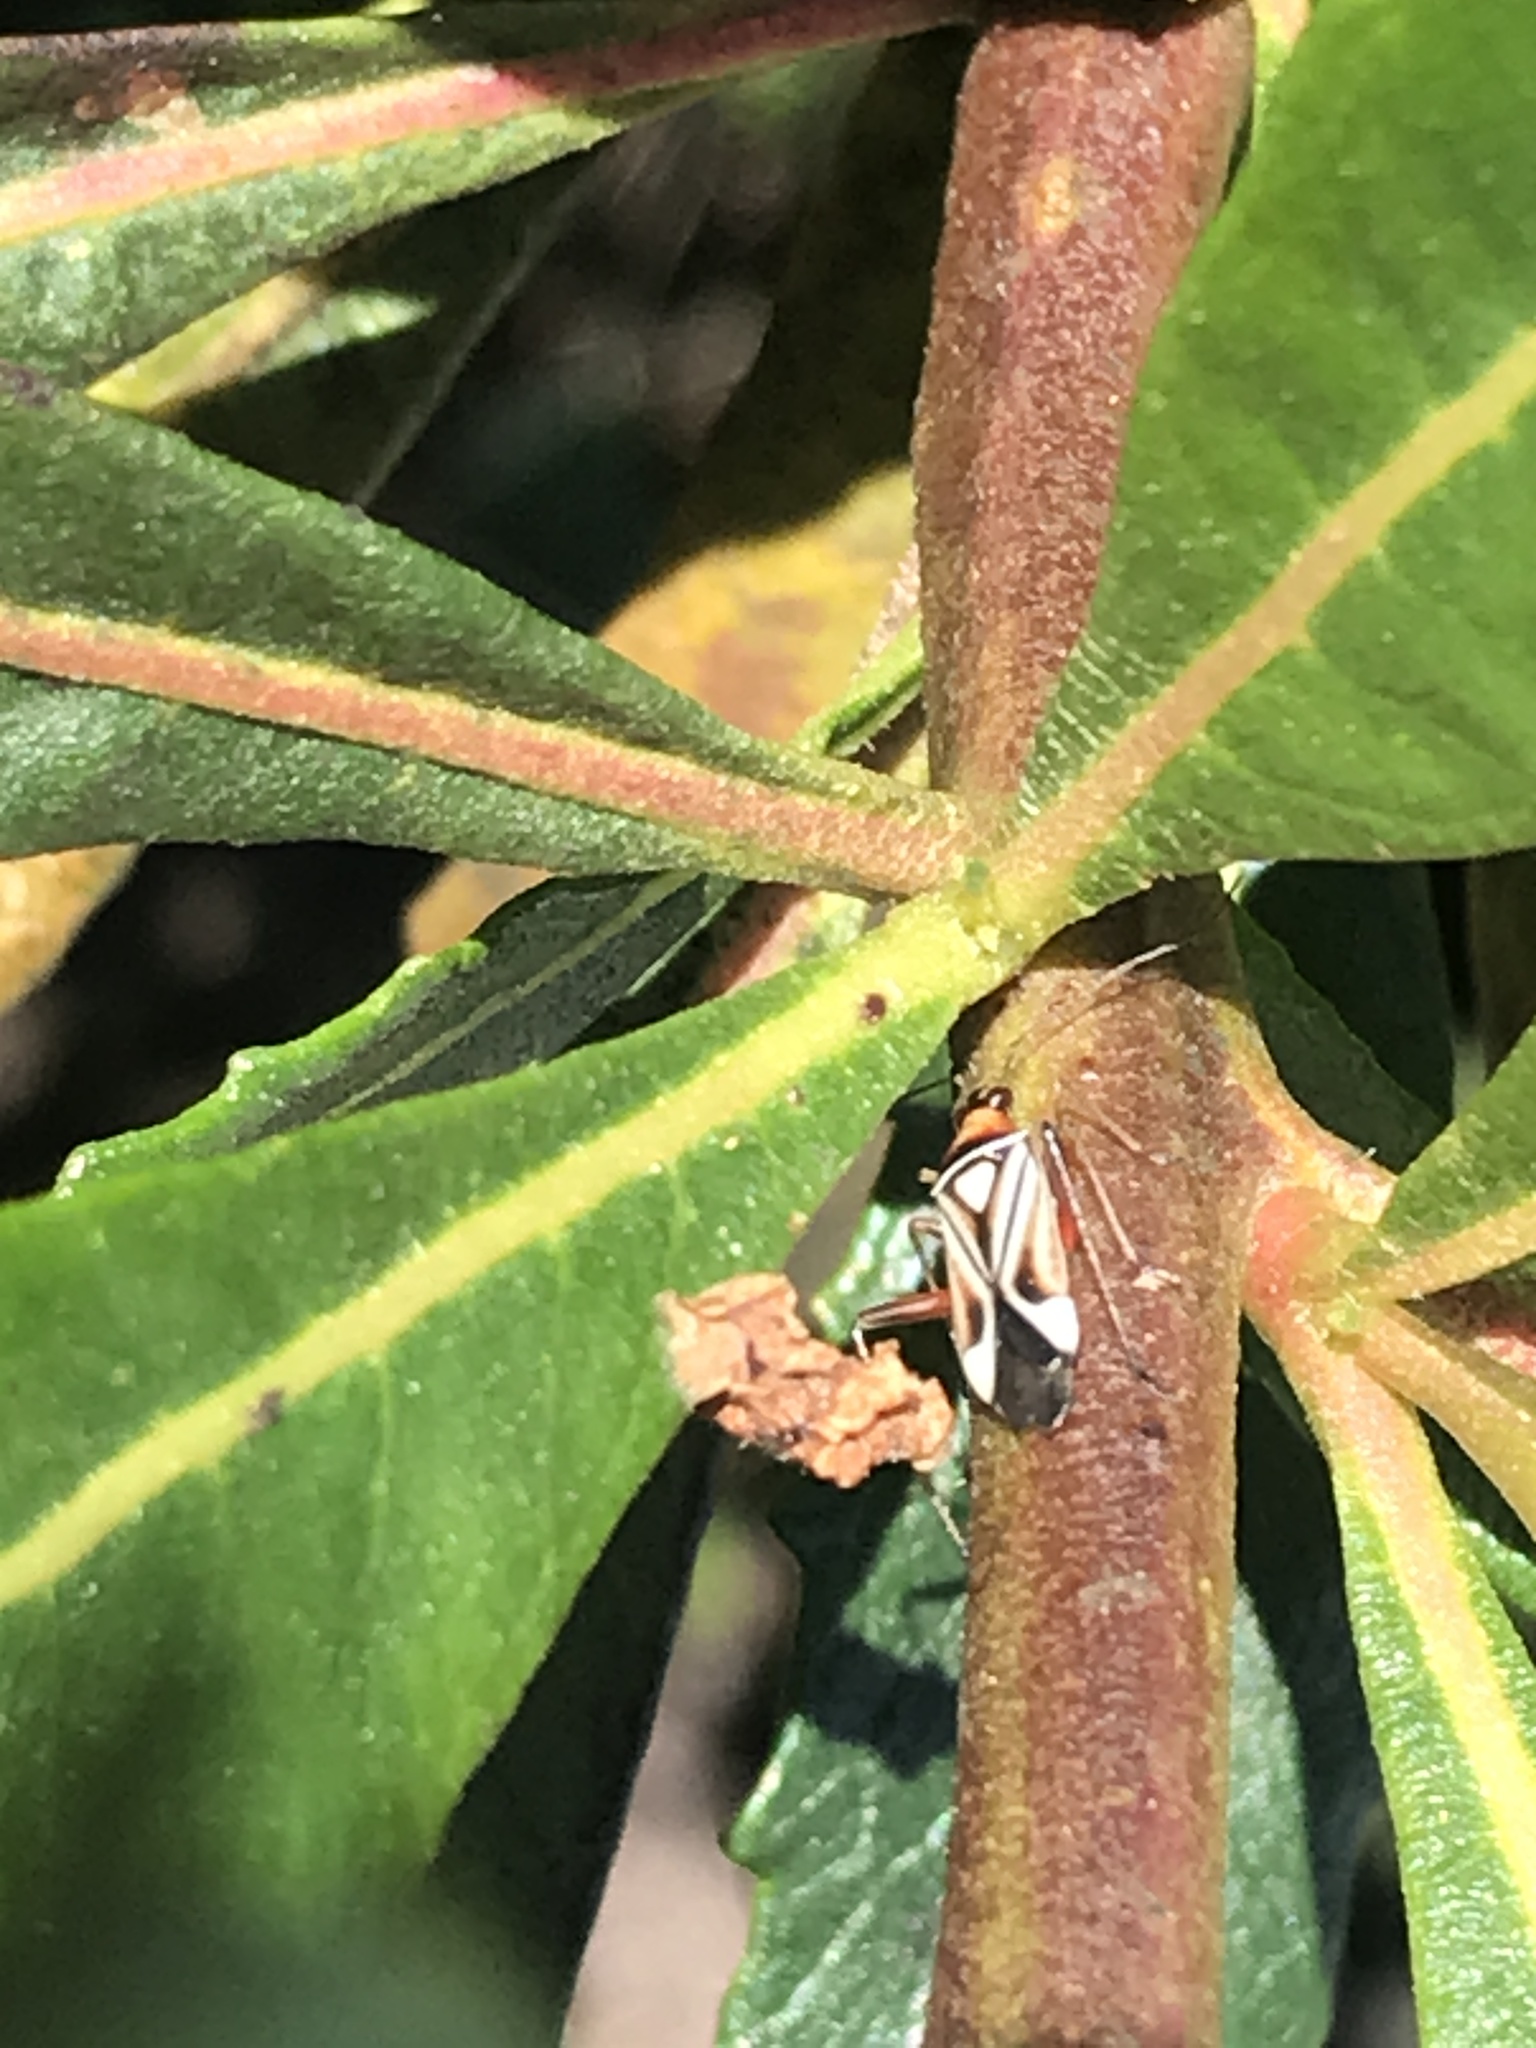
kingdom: Animalia
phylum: Arthropoda
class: Insecta
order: Hemiptera
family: Miridae
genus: Closterocoris
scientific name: Closterocoris amoenus
